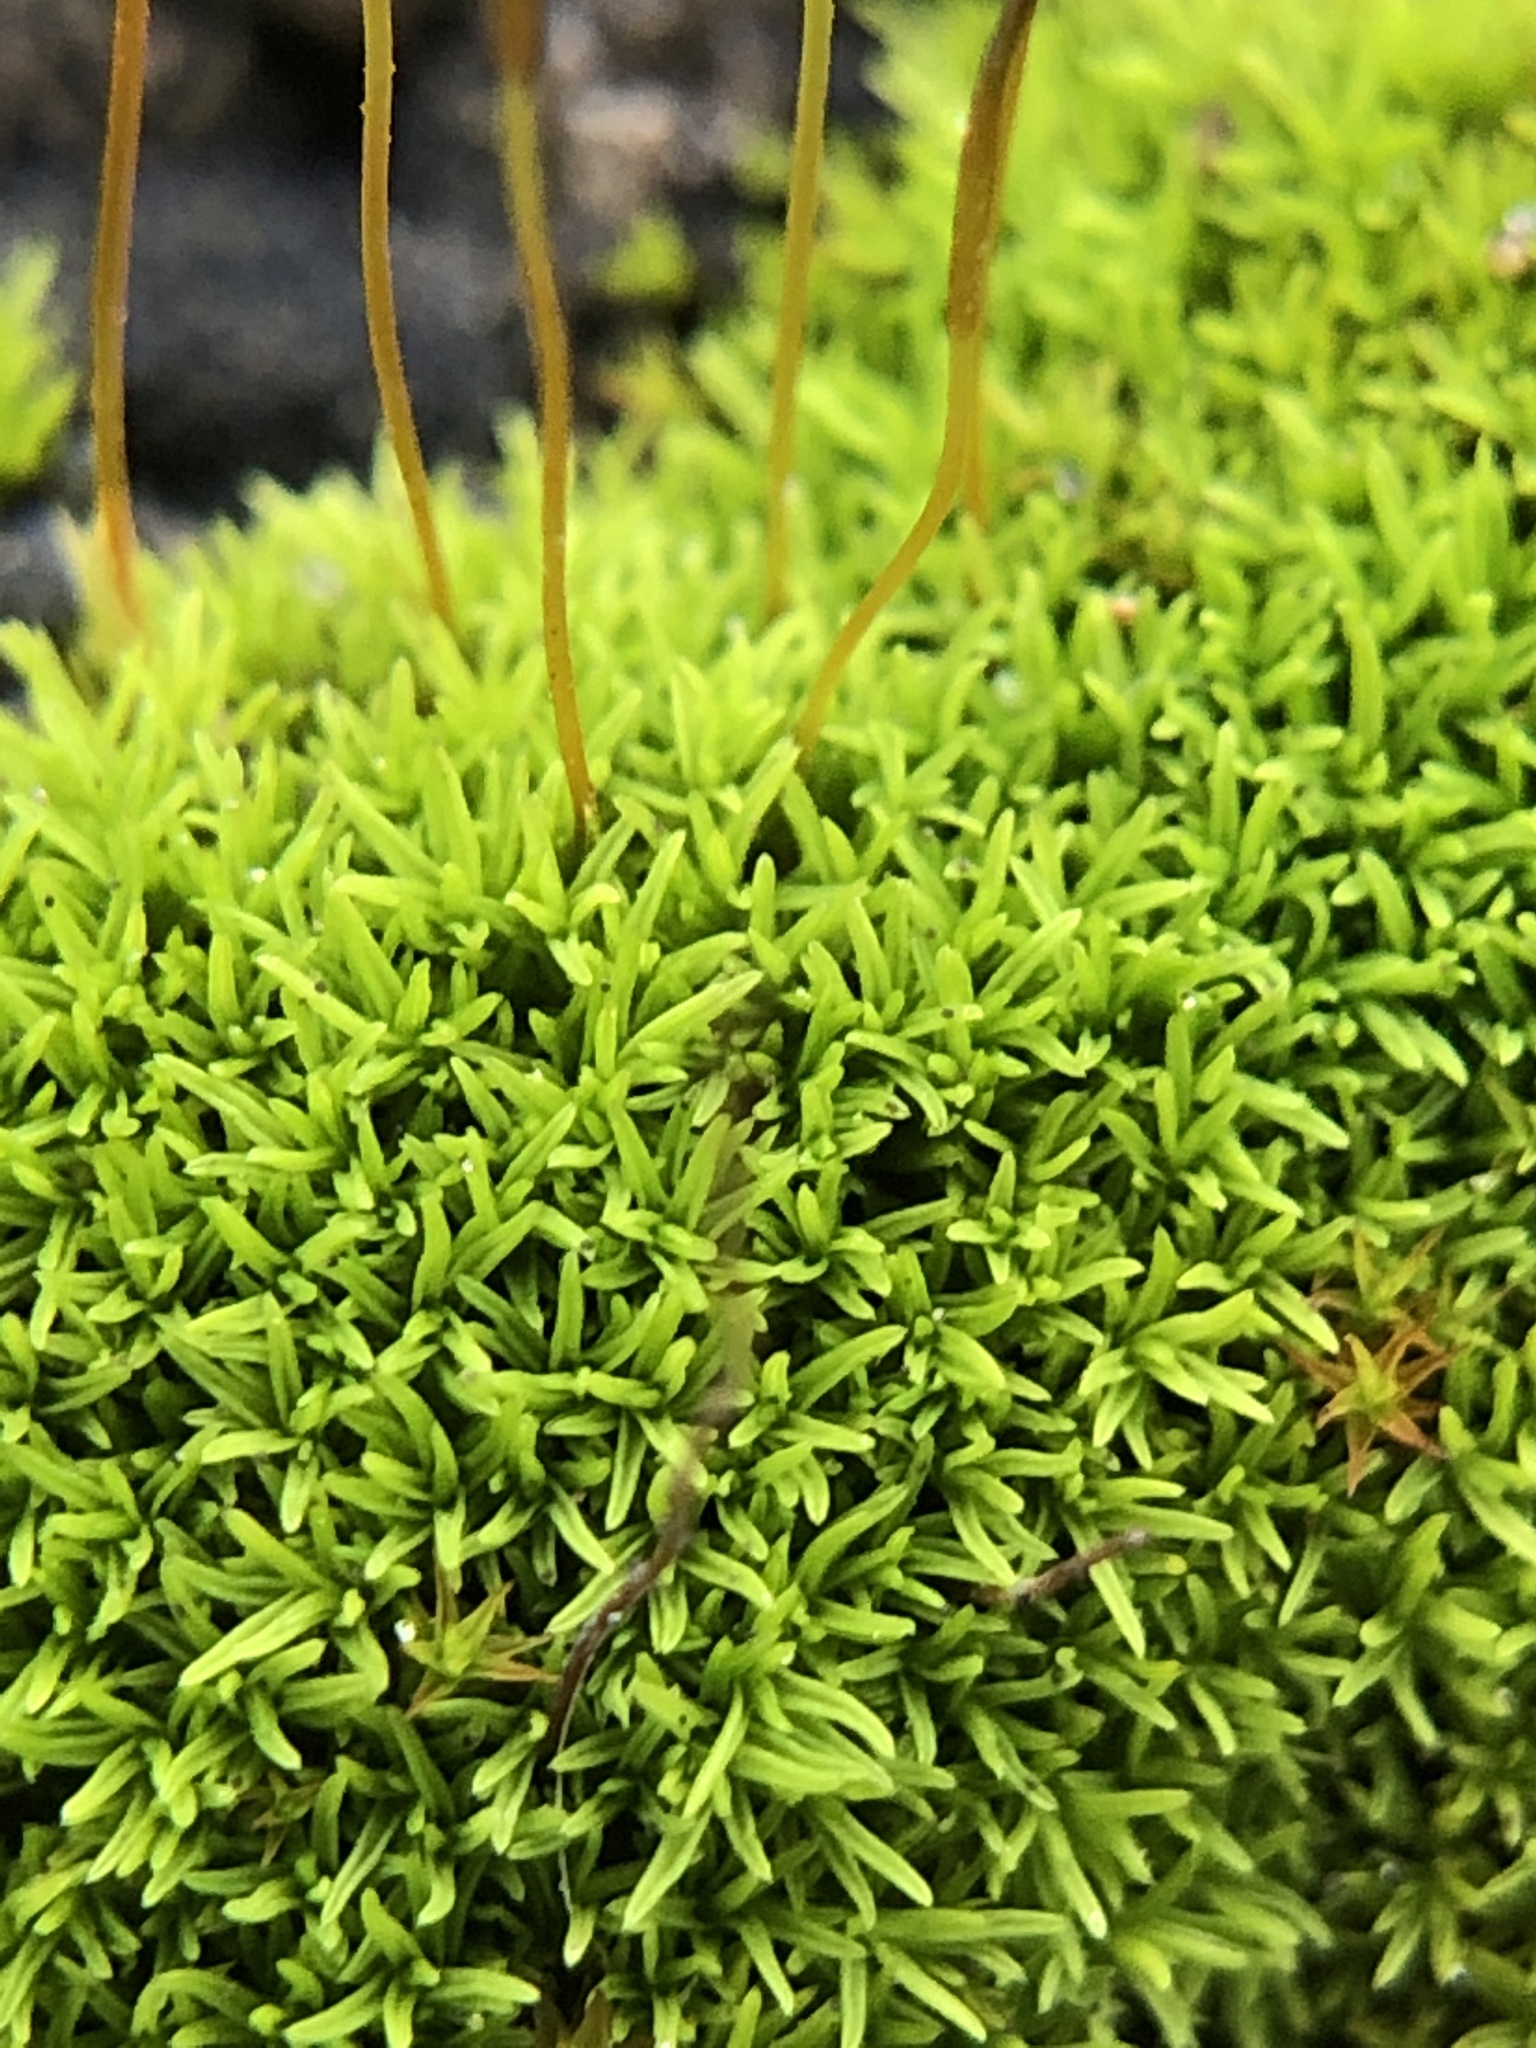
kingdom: Plantae
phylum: Bryophyta
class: Bryopsida
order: Pottiales
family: Pottiaceae
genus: Pseudocrossidium
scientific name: Pseudocrossidium revolutum
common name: Revolute beard-moss
